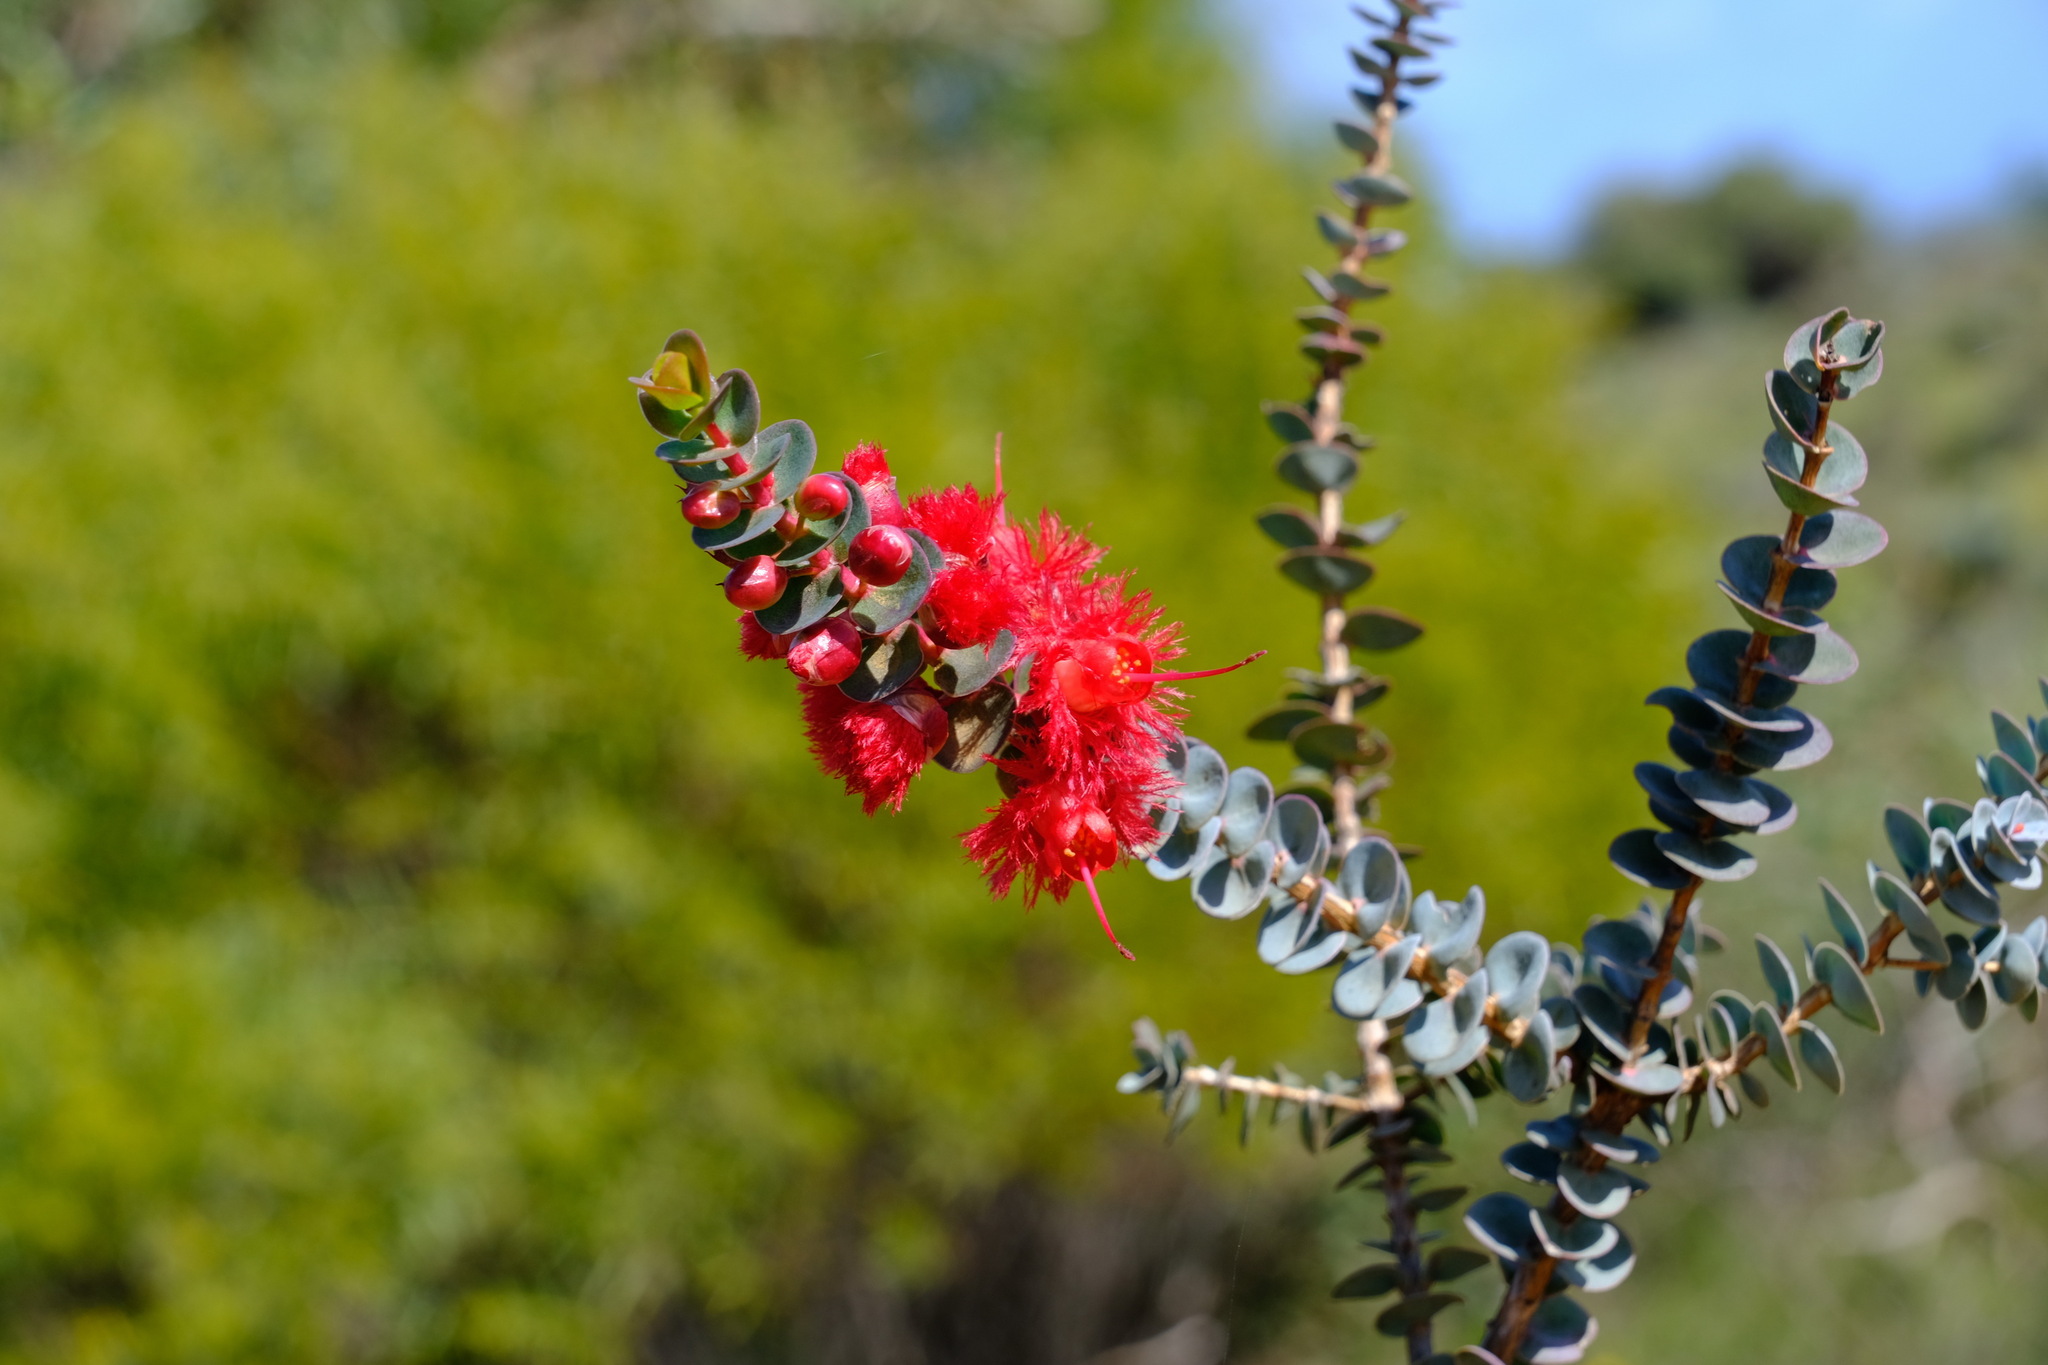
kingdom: Plantae
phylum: Tracheophyta
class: Magnoliopsida
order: Myrtales
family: Myrtaceae
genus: Verticordia
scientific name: Verticordia grandis
